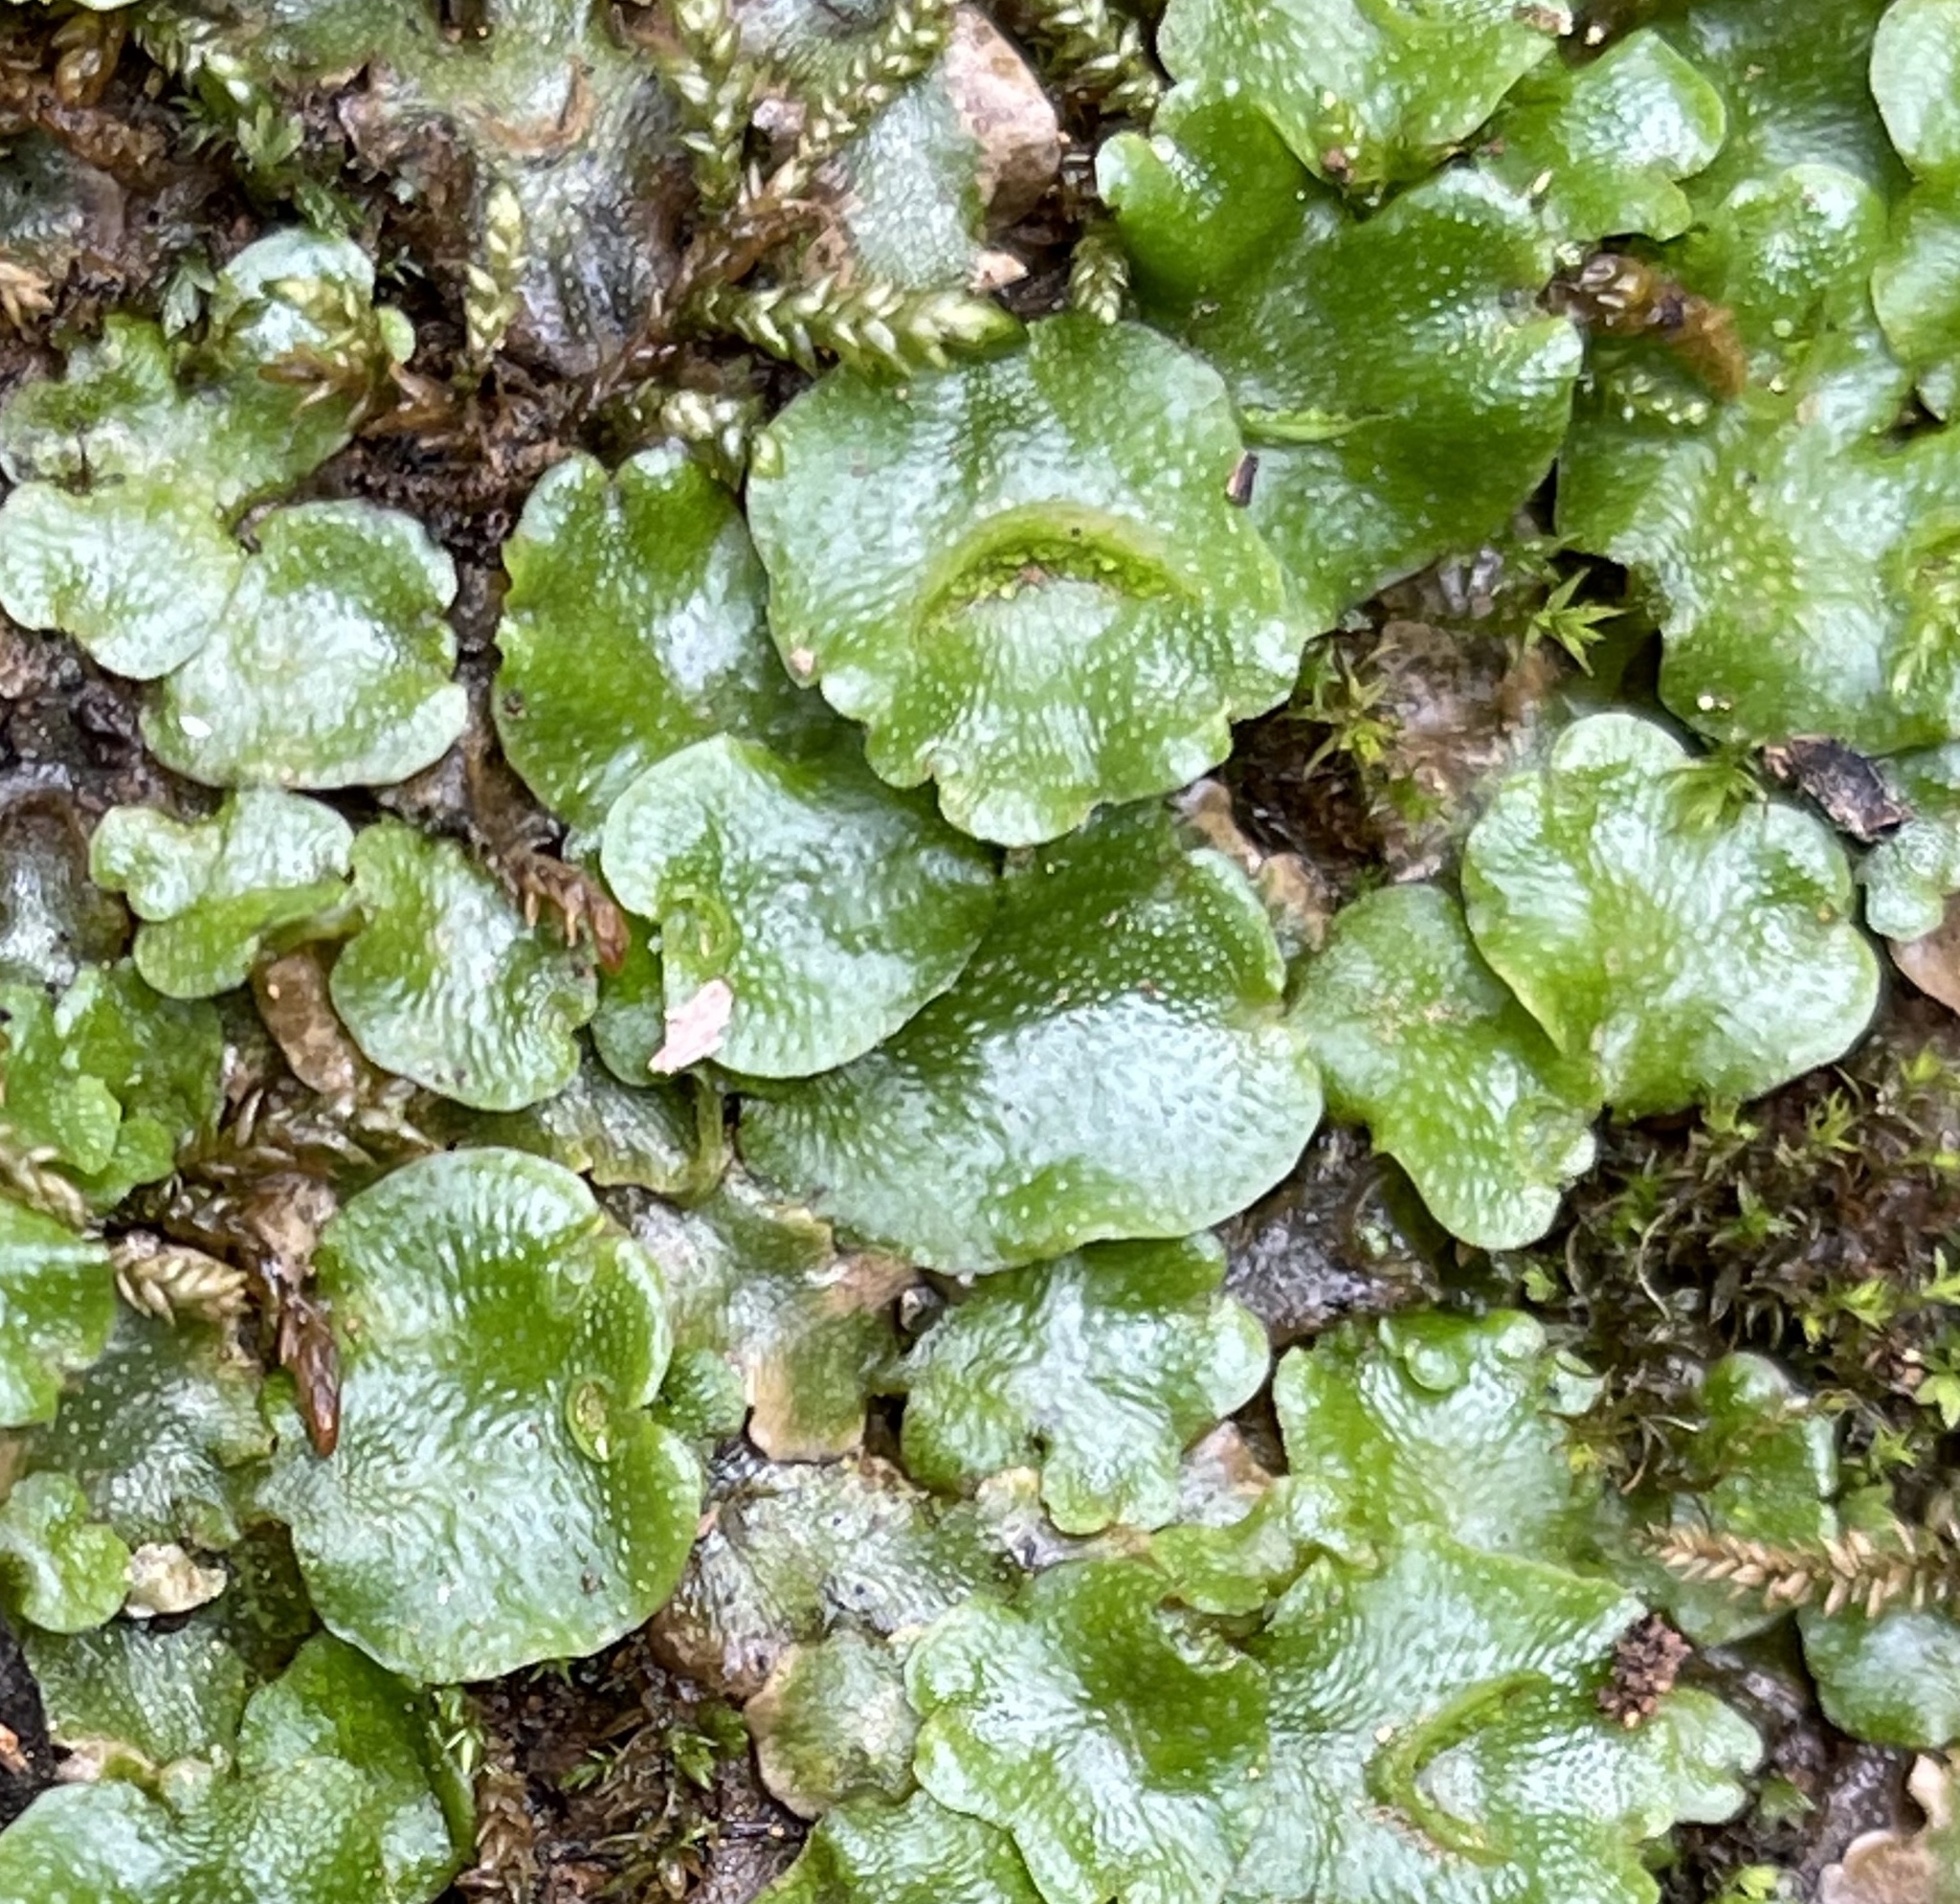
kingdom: Plantae
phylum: Marchantiophyta
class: Marchantiopsida
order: Lunulariales
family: Lunulariaceae
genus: Lunularia
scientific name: Lunularia cruciata
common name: Crescent-cup liverwort
